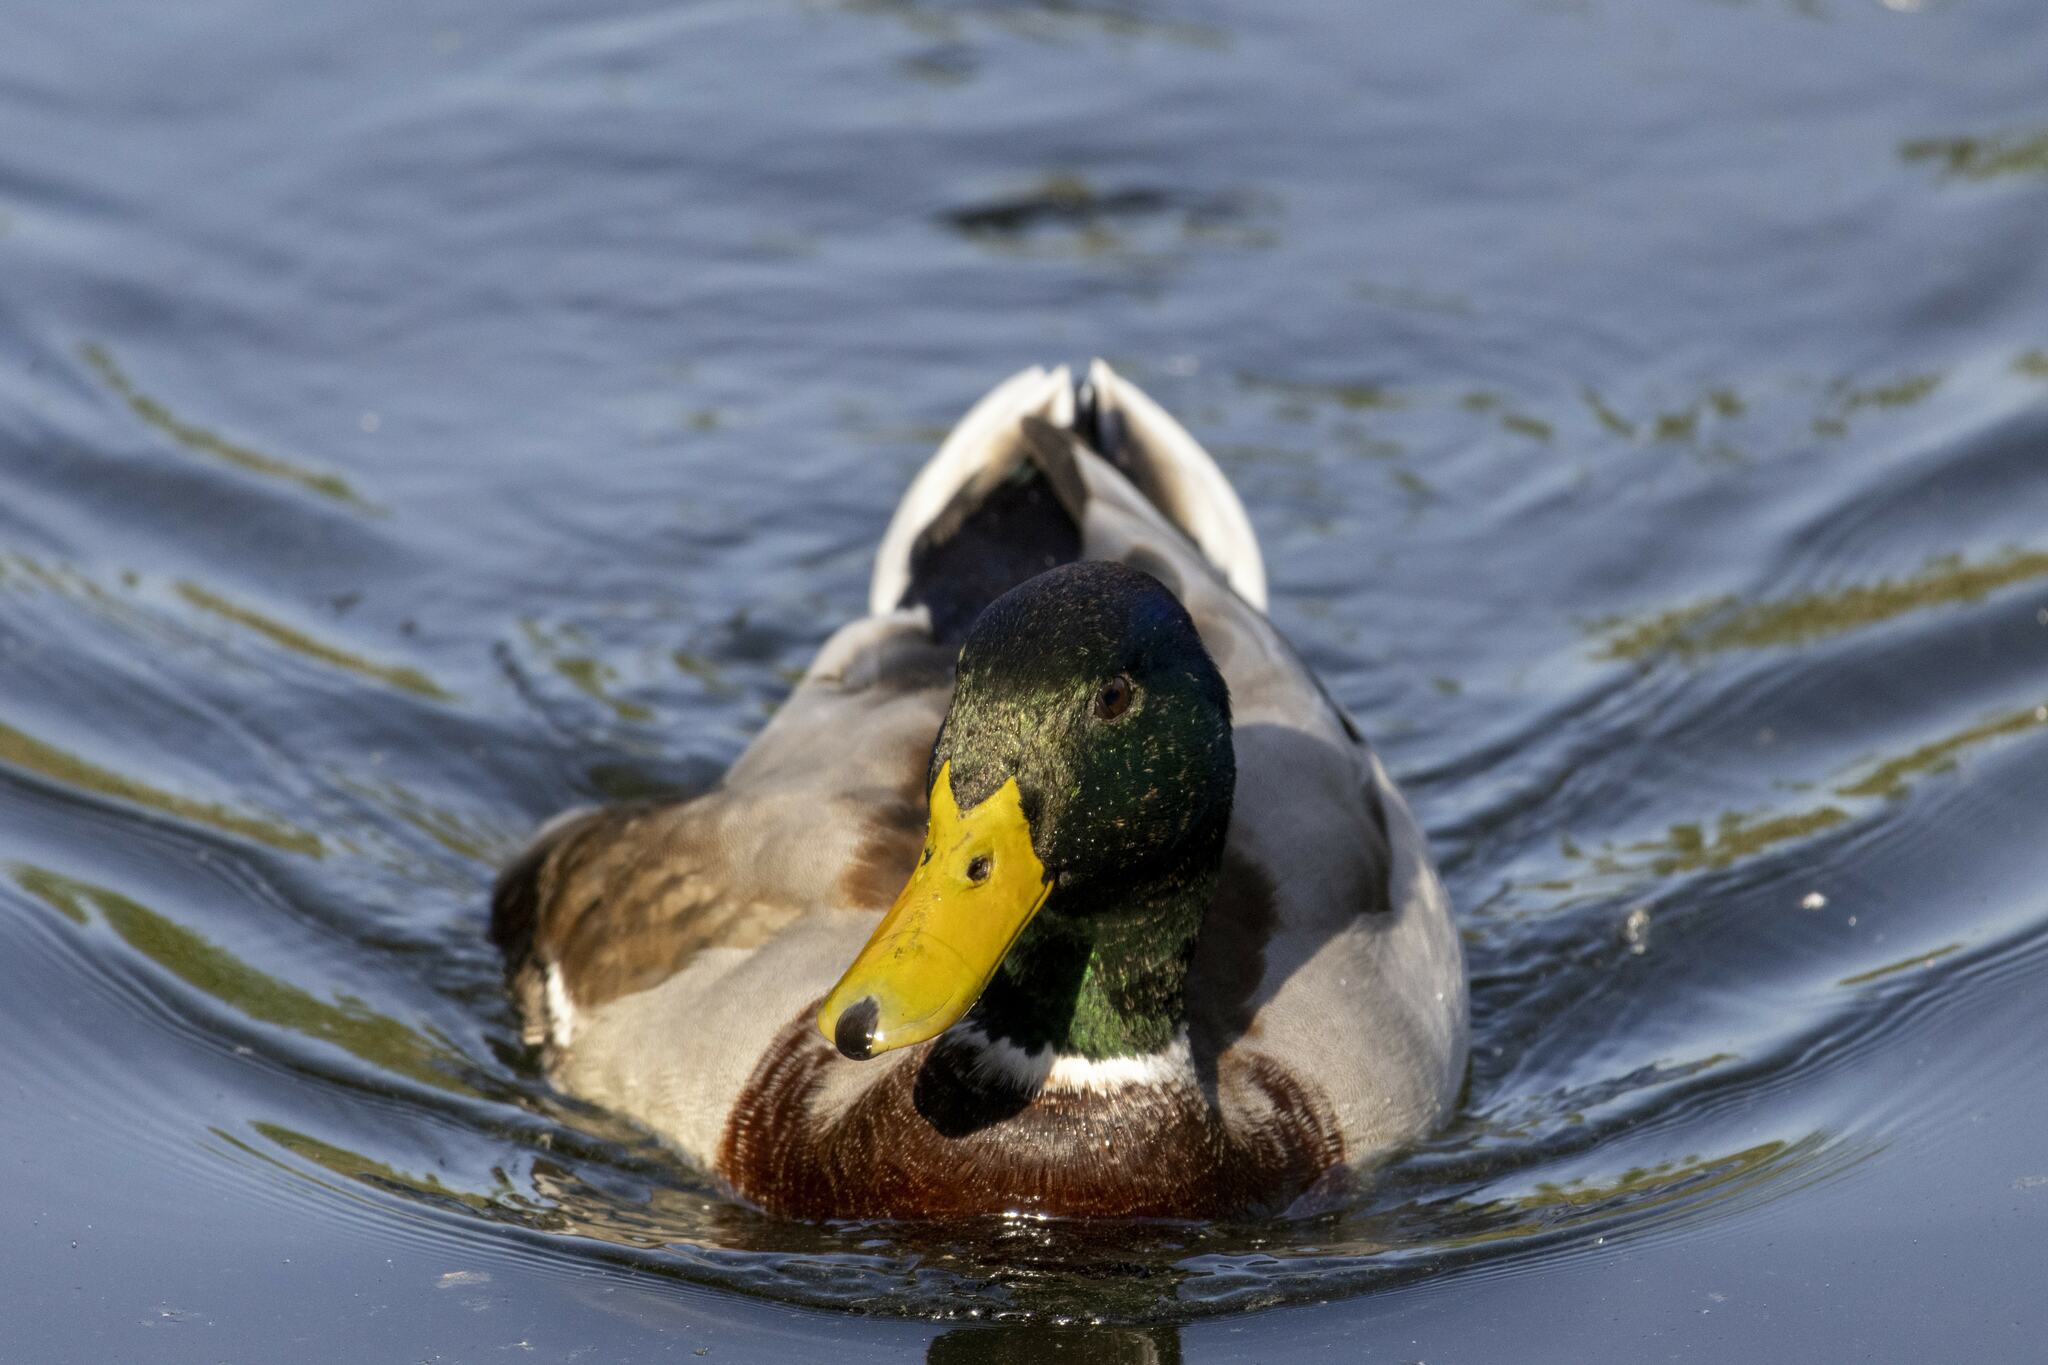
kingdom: Animalia
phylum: Chordata
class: Aves
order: Anseriformes
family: Anatidae
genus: Anas
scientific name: Anas platyrhynchos
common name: Mallard
